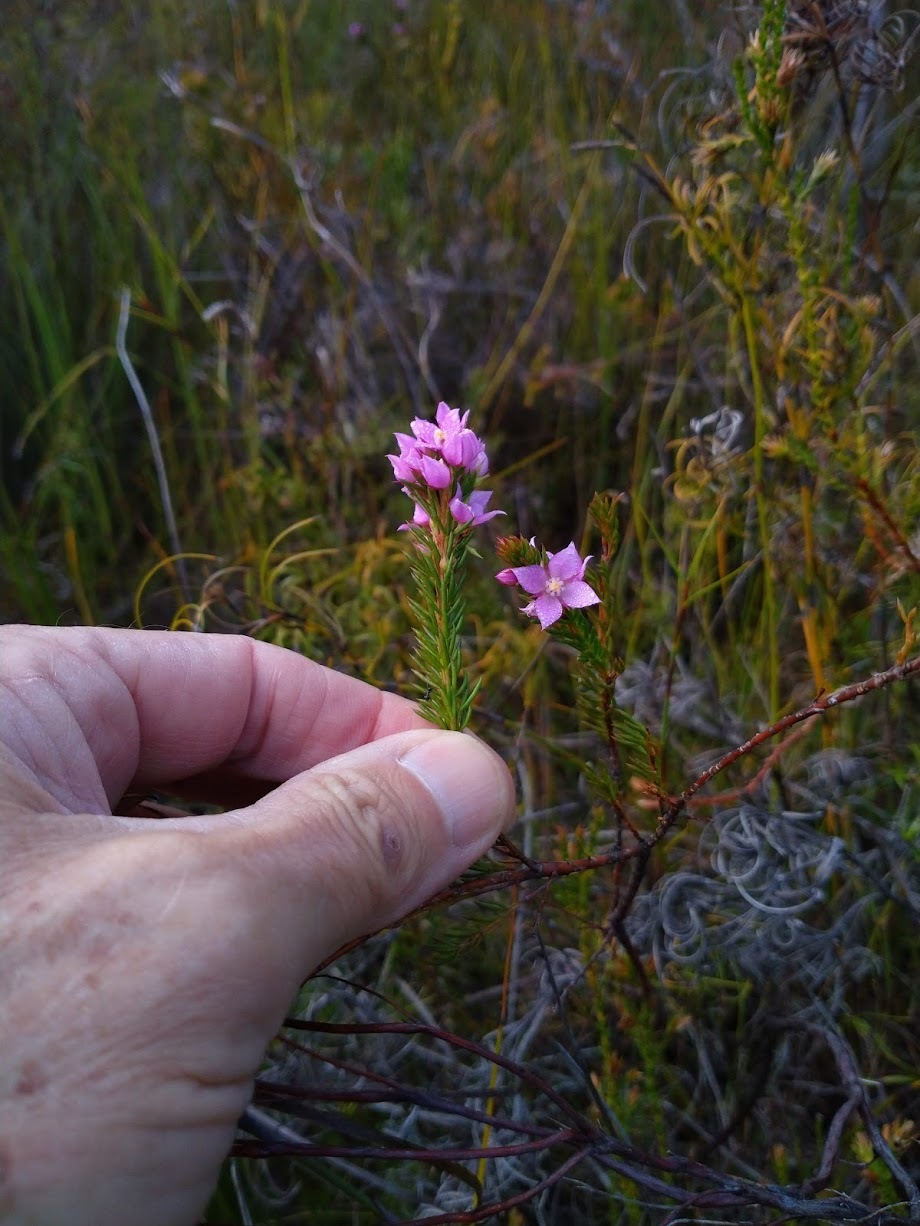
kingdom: Plantae
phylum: Tracheophyta
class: Magnoliopsida
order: Sapindales
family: Rutaceae
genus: Boronia
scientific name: Boronia falcifolia
